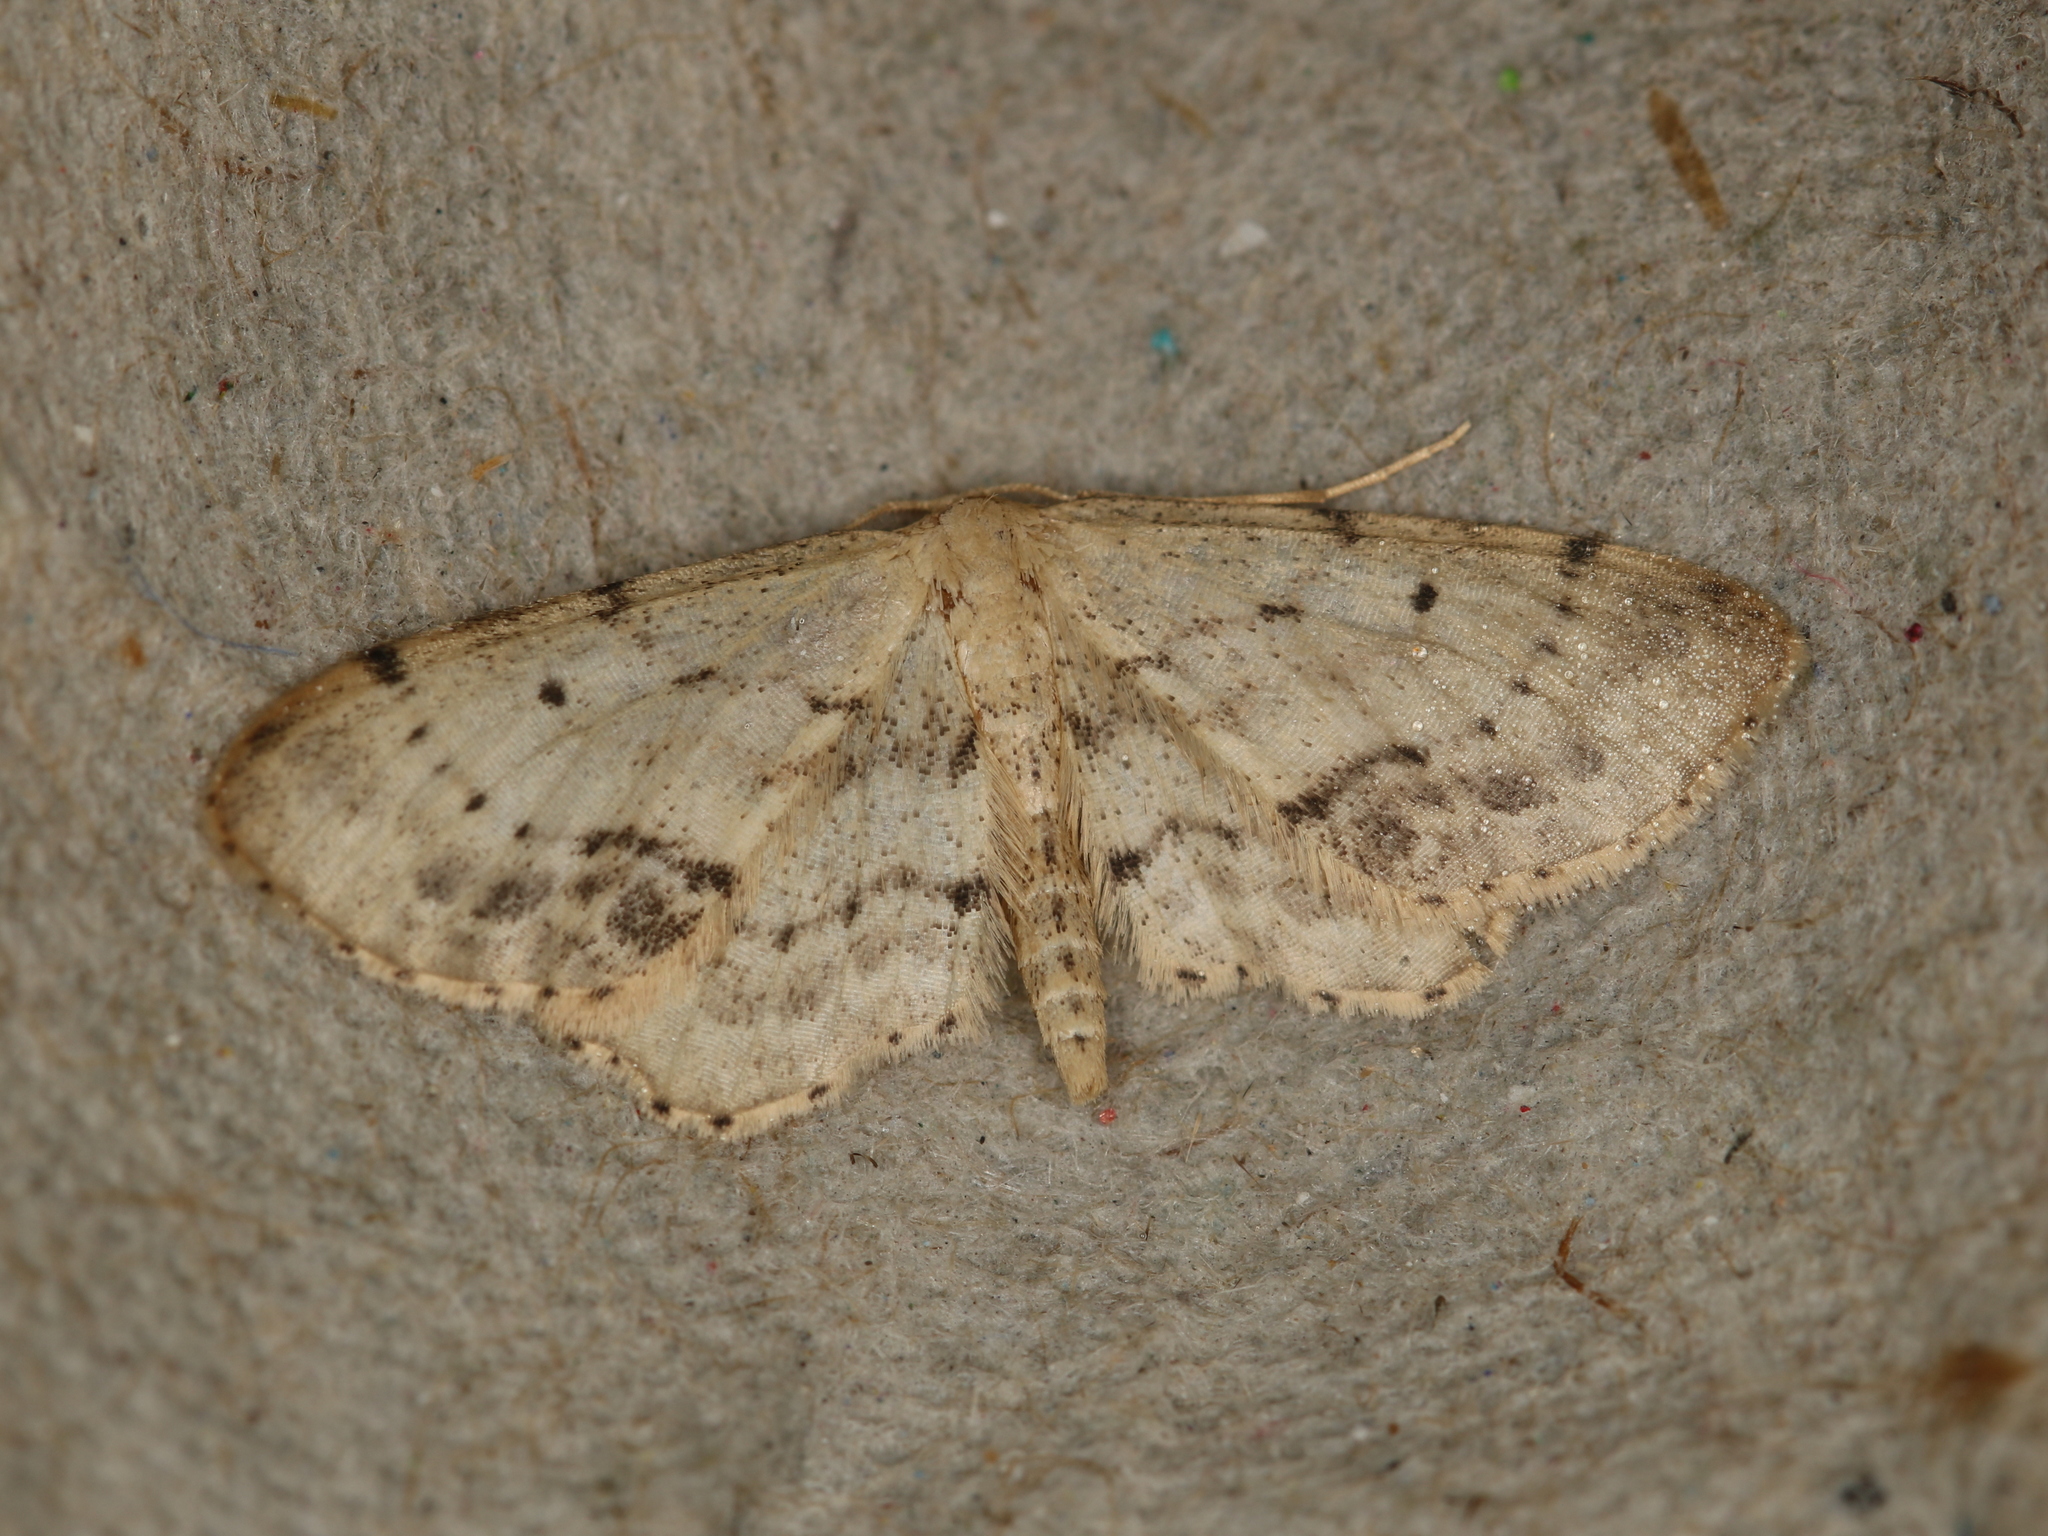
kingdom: Animalia
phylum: Arthropoda
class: Insecta
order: Lepidoptera
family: Geometridae
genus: Idaea
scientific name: Idaea dimidiata
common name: Single-dotted wave
